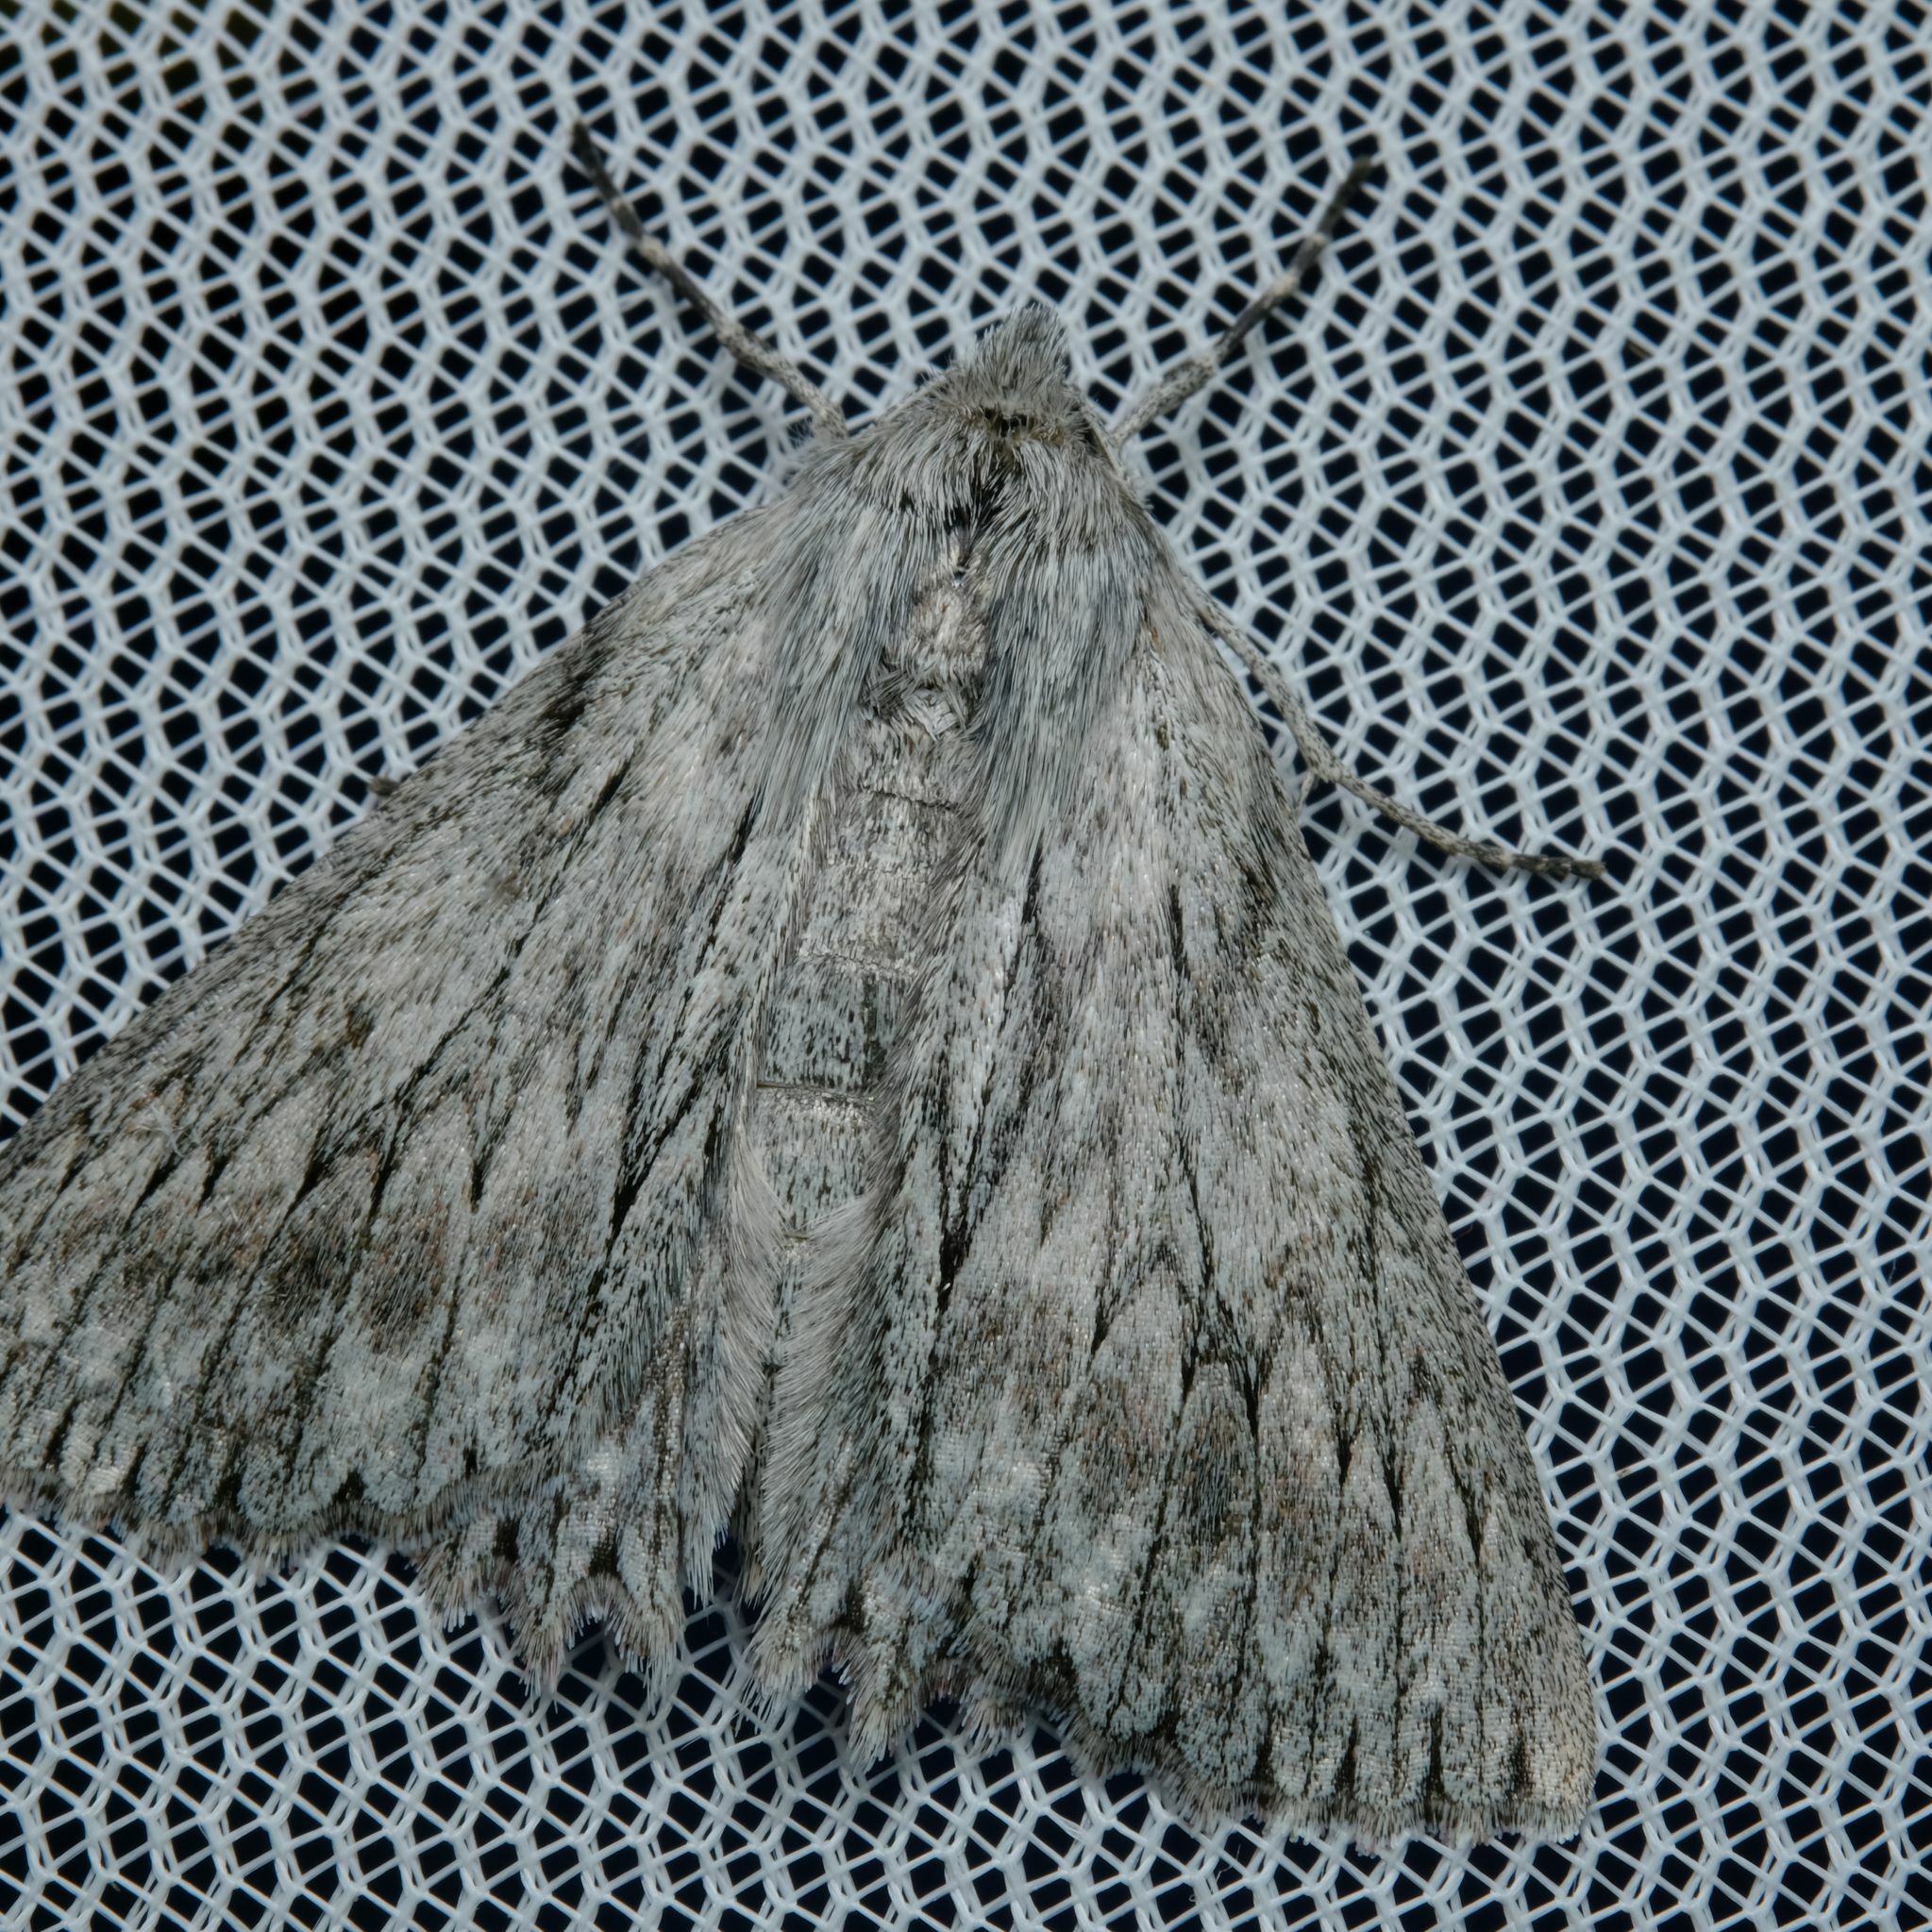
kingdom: Animalia
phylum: Arthropoda
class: Insecta
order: Lepidoptera
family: Geometridae
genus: Cyneoterpna
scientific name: Cyneoterpna wilsoni
